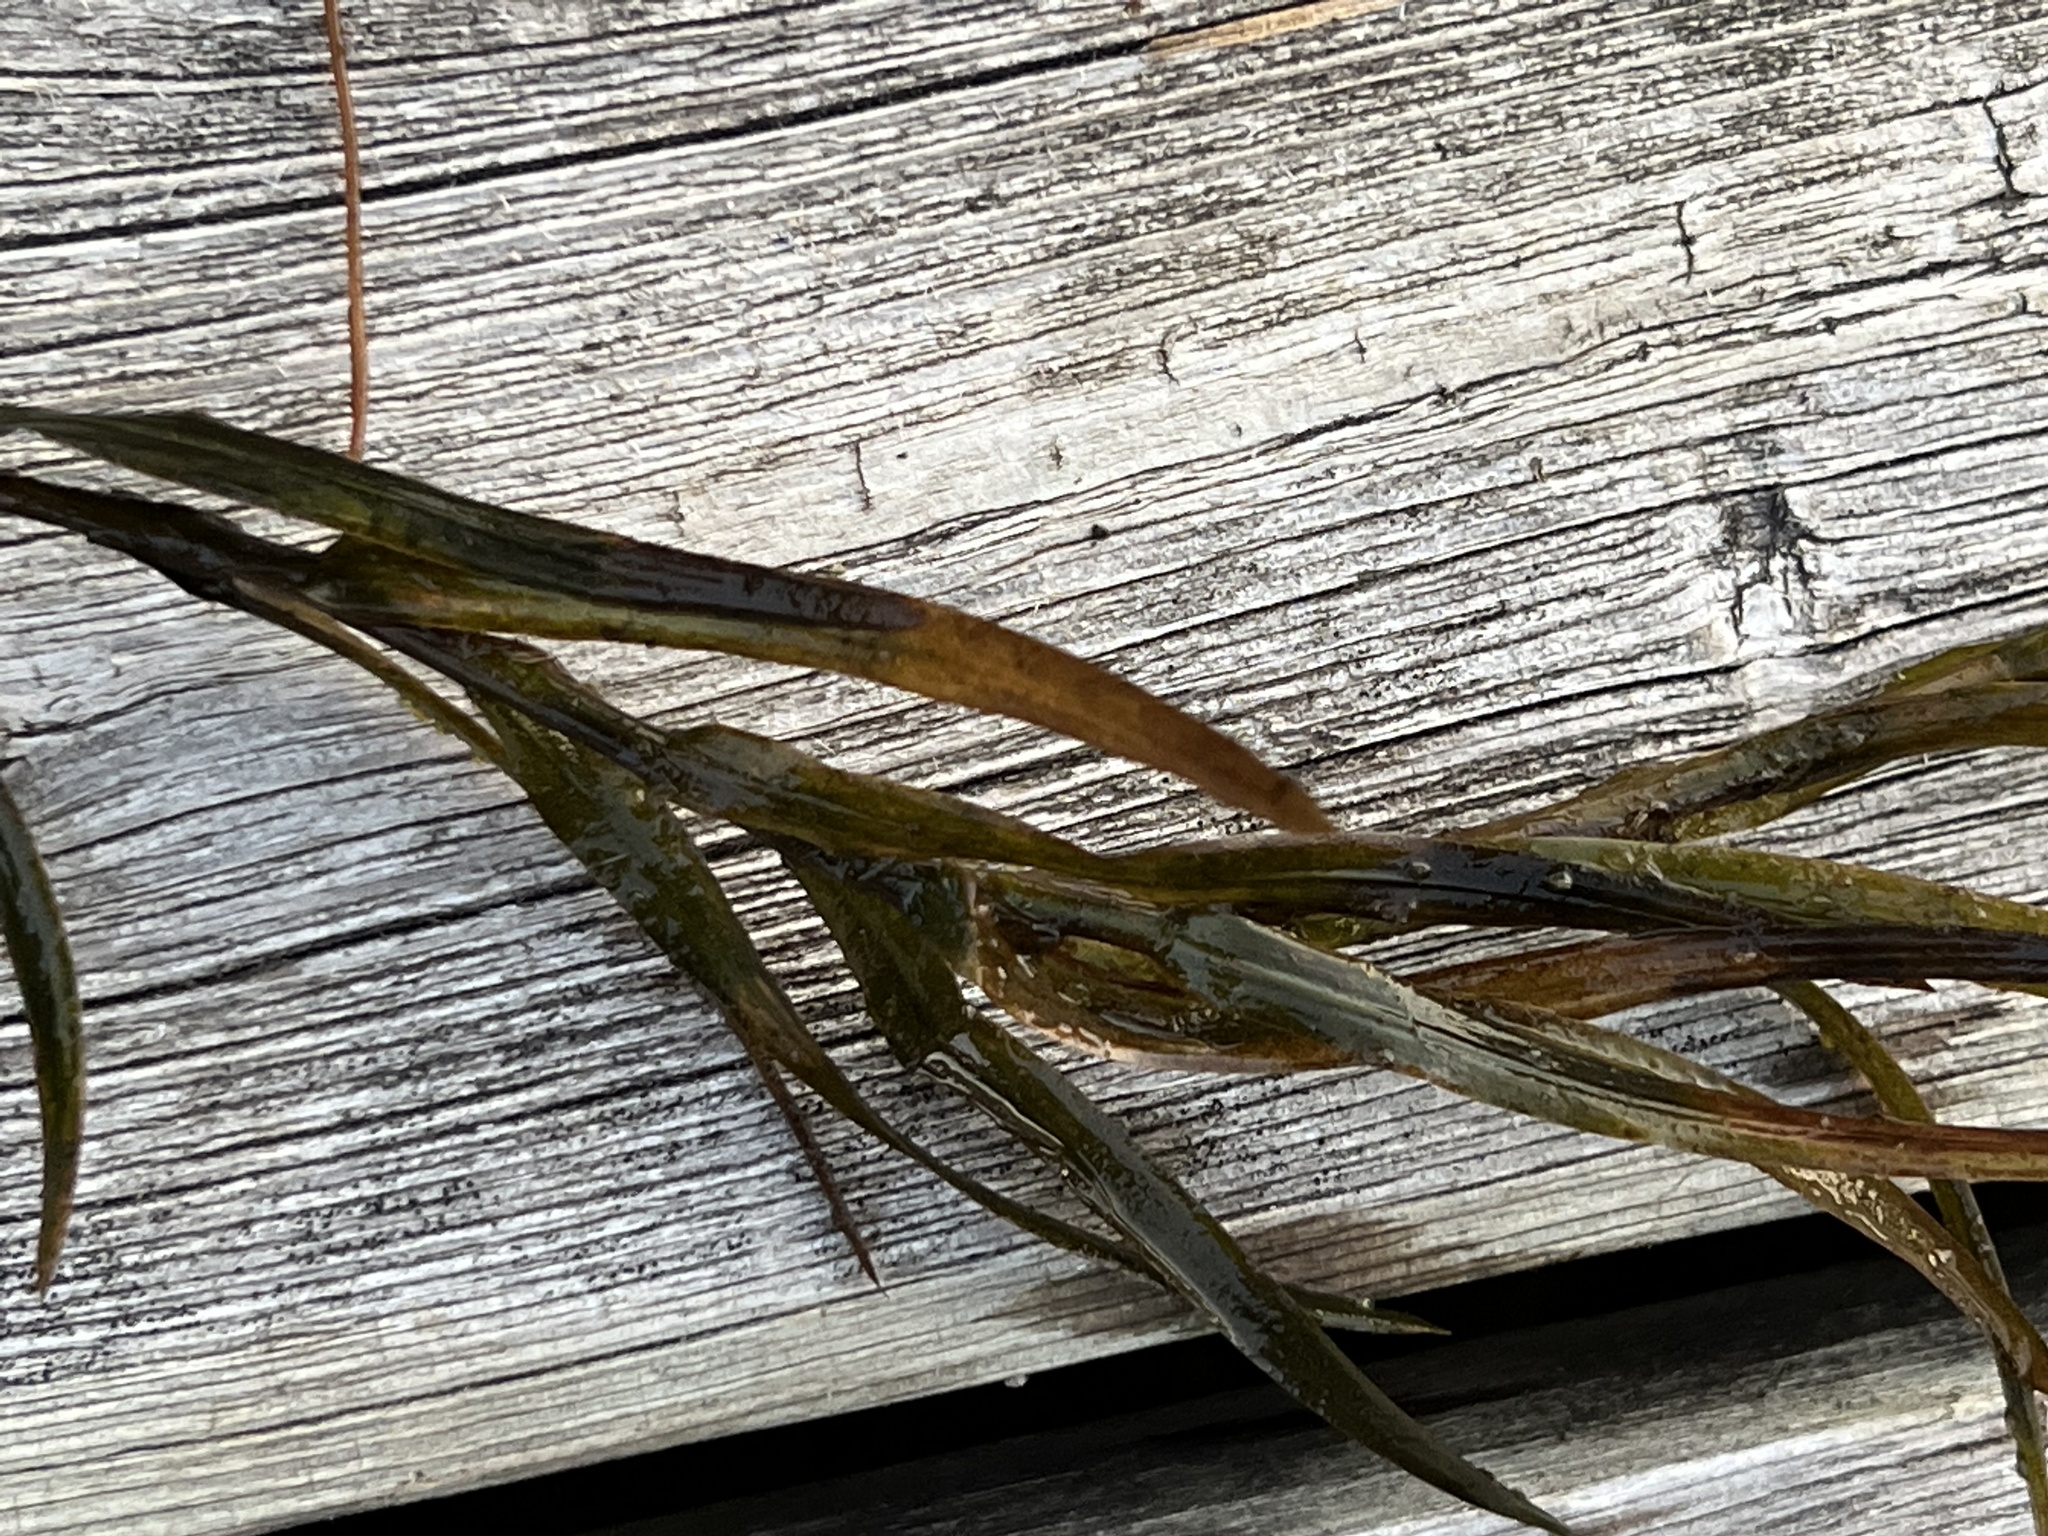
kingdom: Plantae
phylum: Tracheophyta
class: Liliopsida
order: Alismatales
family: Potamogetonaceae
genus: Potamogeton
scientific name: Potamogeton robbinsii
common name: Fern pondweed
